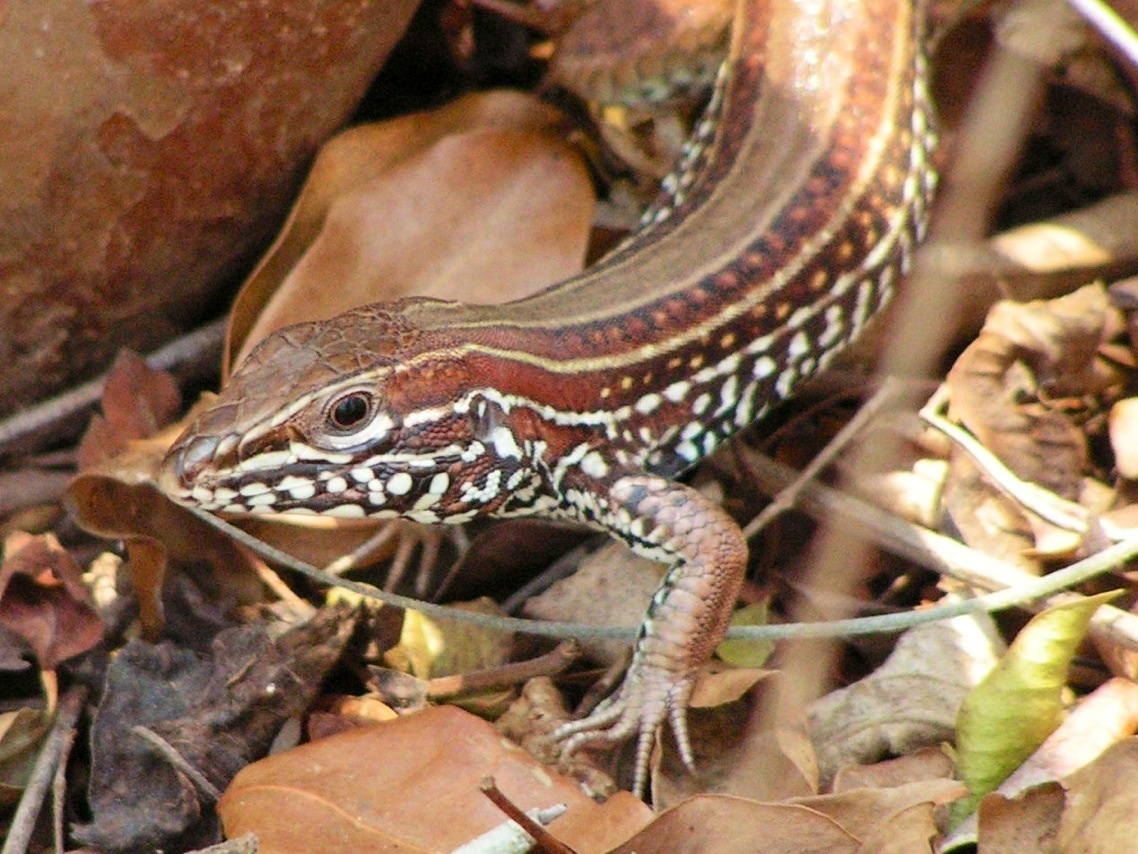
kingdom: Animalia
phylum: Chordata
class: Squamata
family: Teiidae
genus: Aspidoscelis
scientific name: Aspidoscelis costatus
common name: Western mexico whiptail
